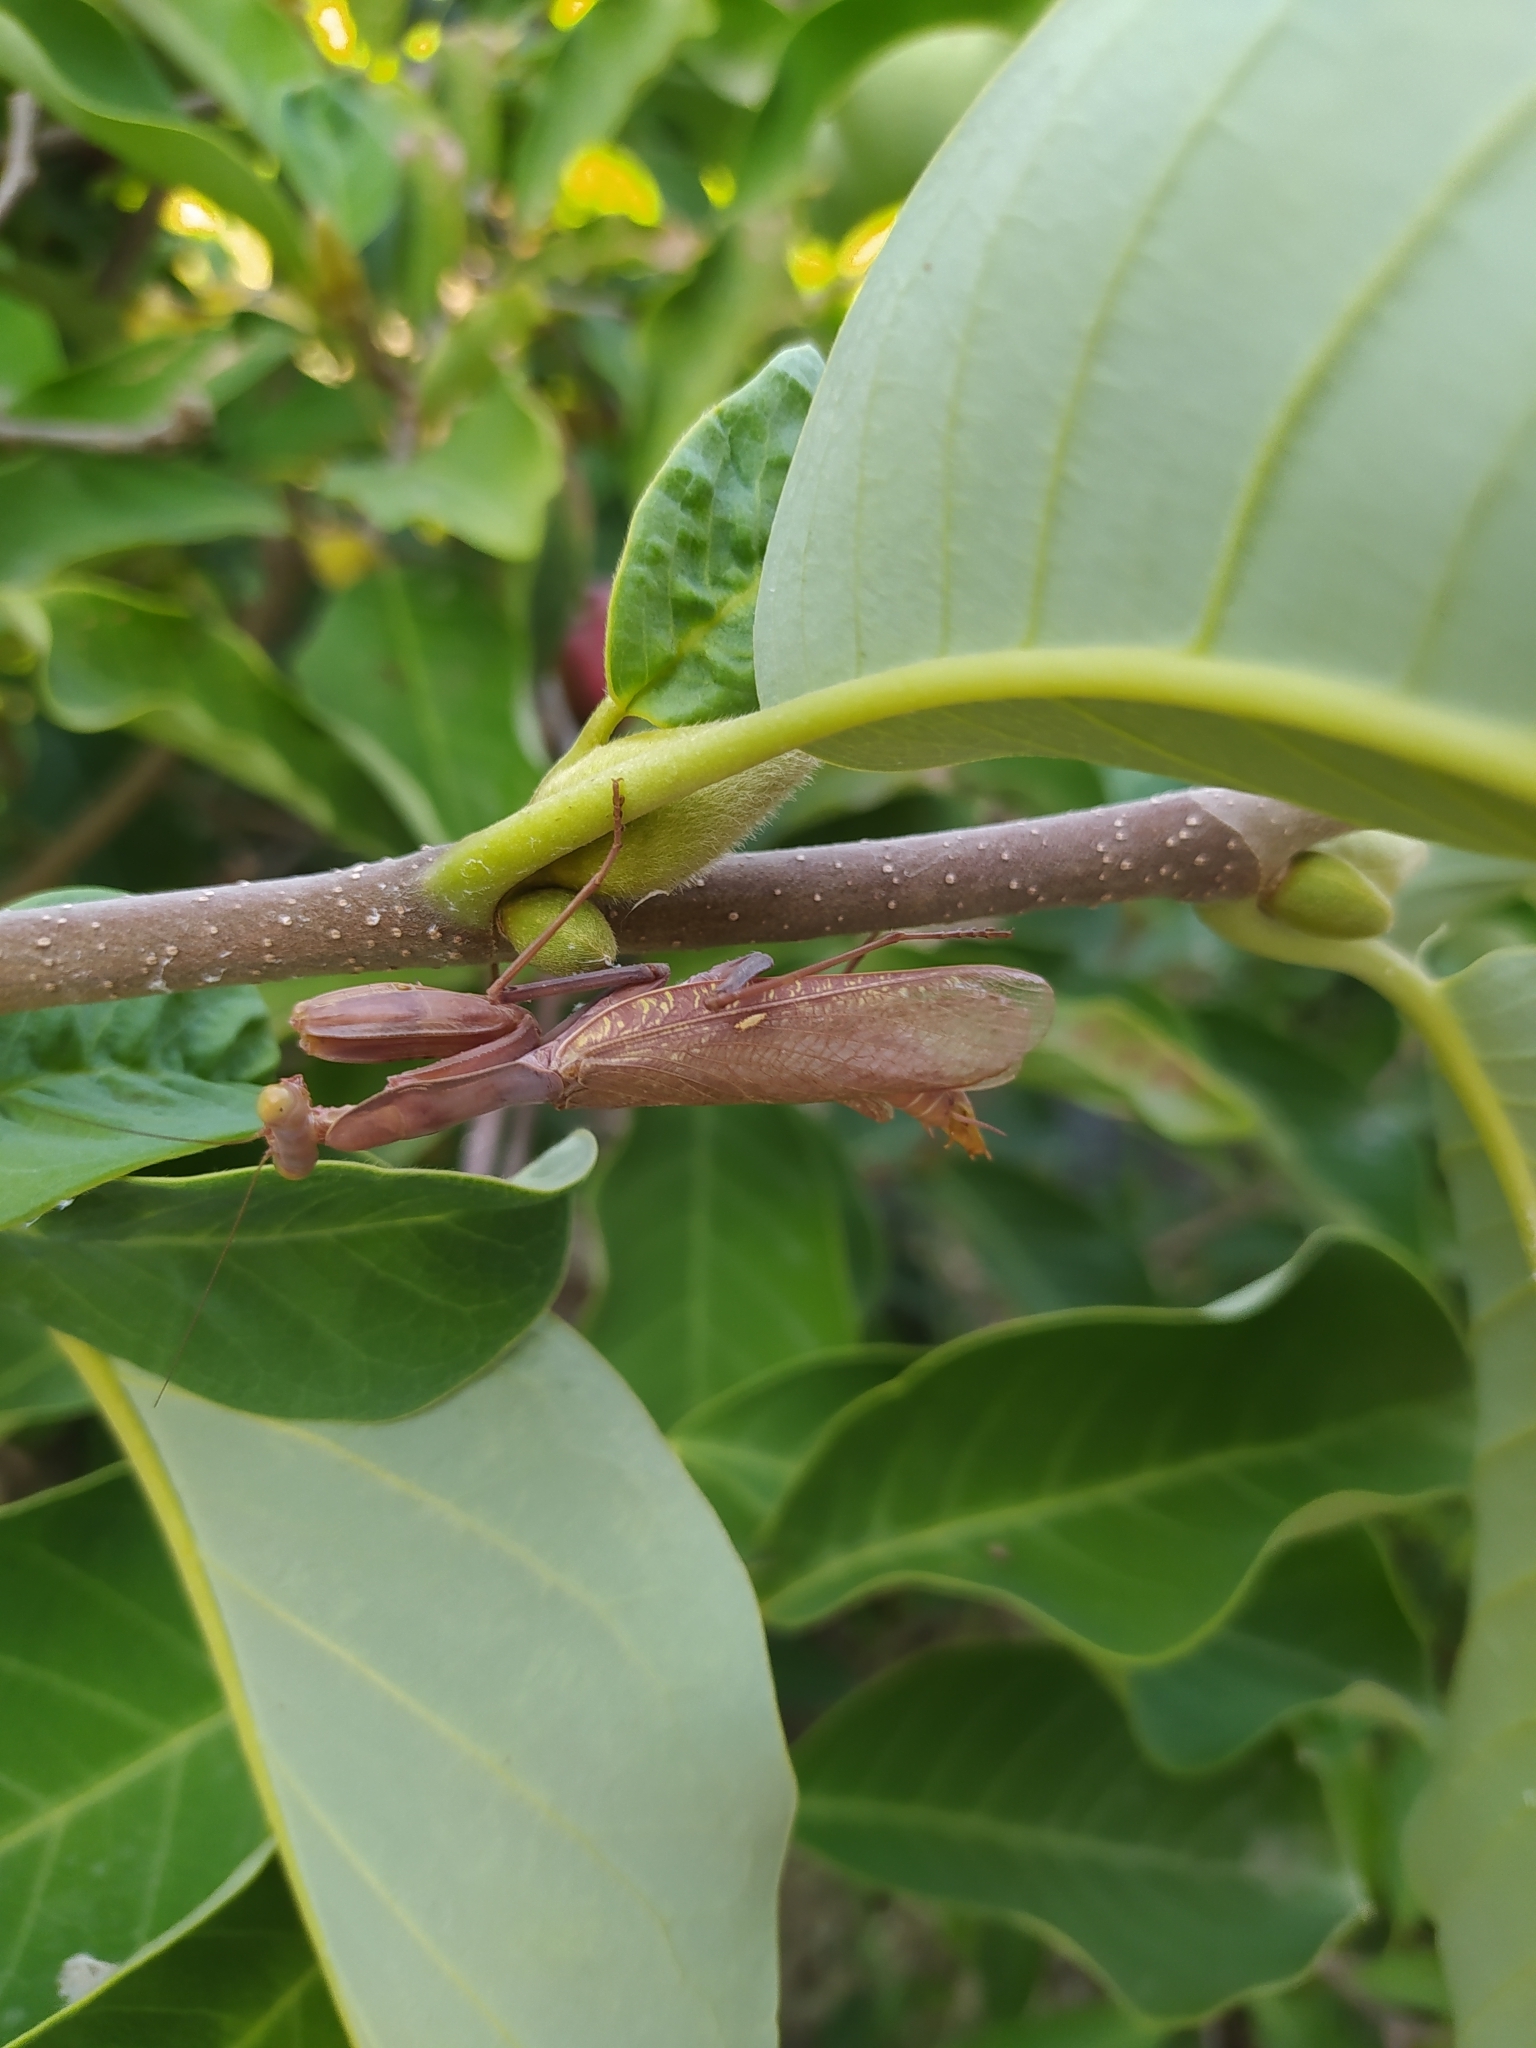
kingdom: Animalia
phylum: Arthropoda
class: Insecta
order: Mantodea
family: Mantidae
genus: Hierodula
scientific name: Hierodula transcaucasica
